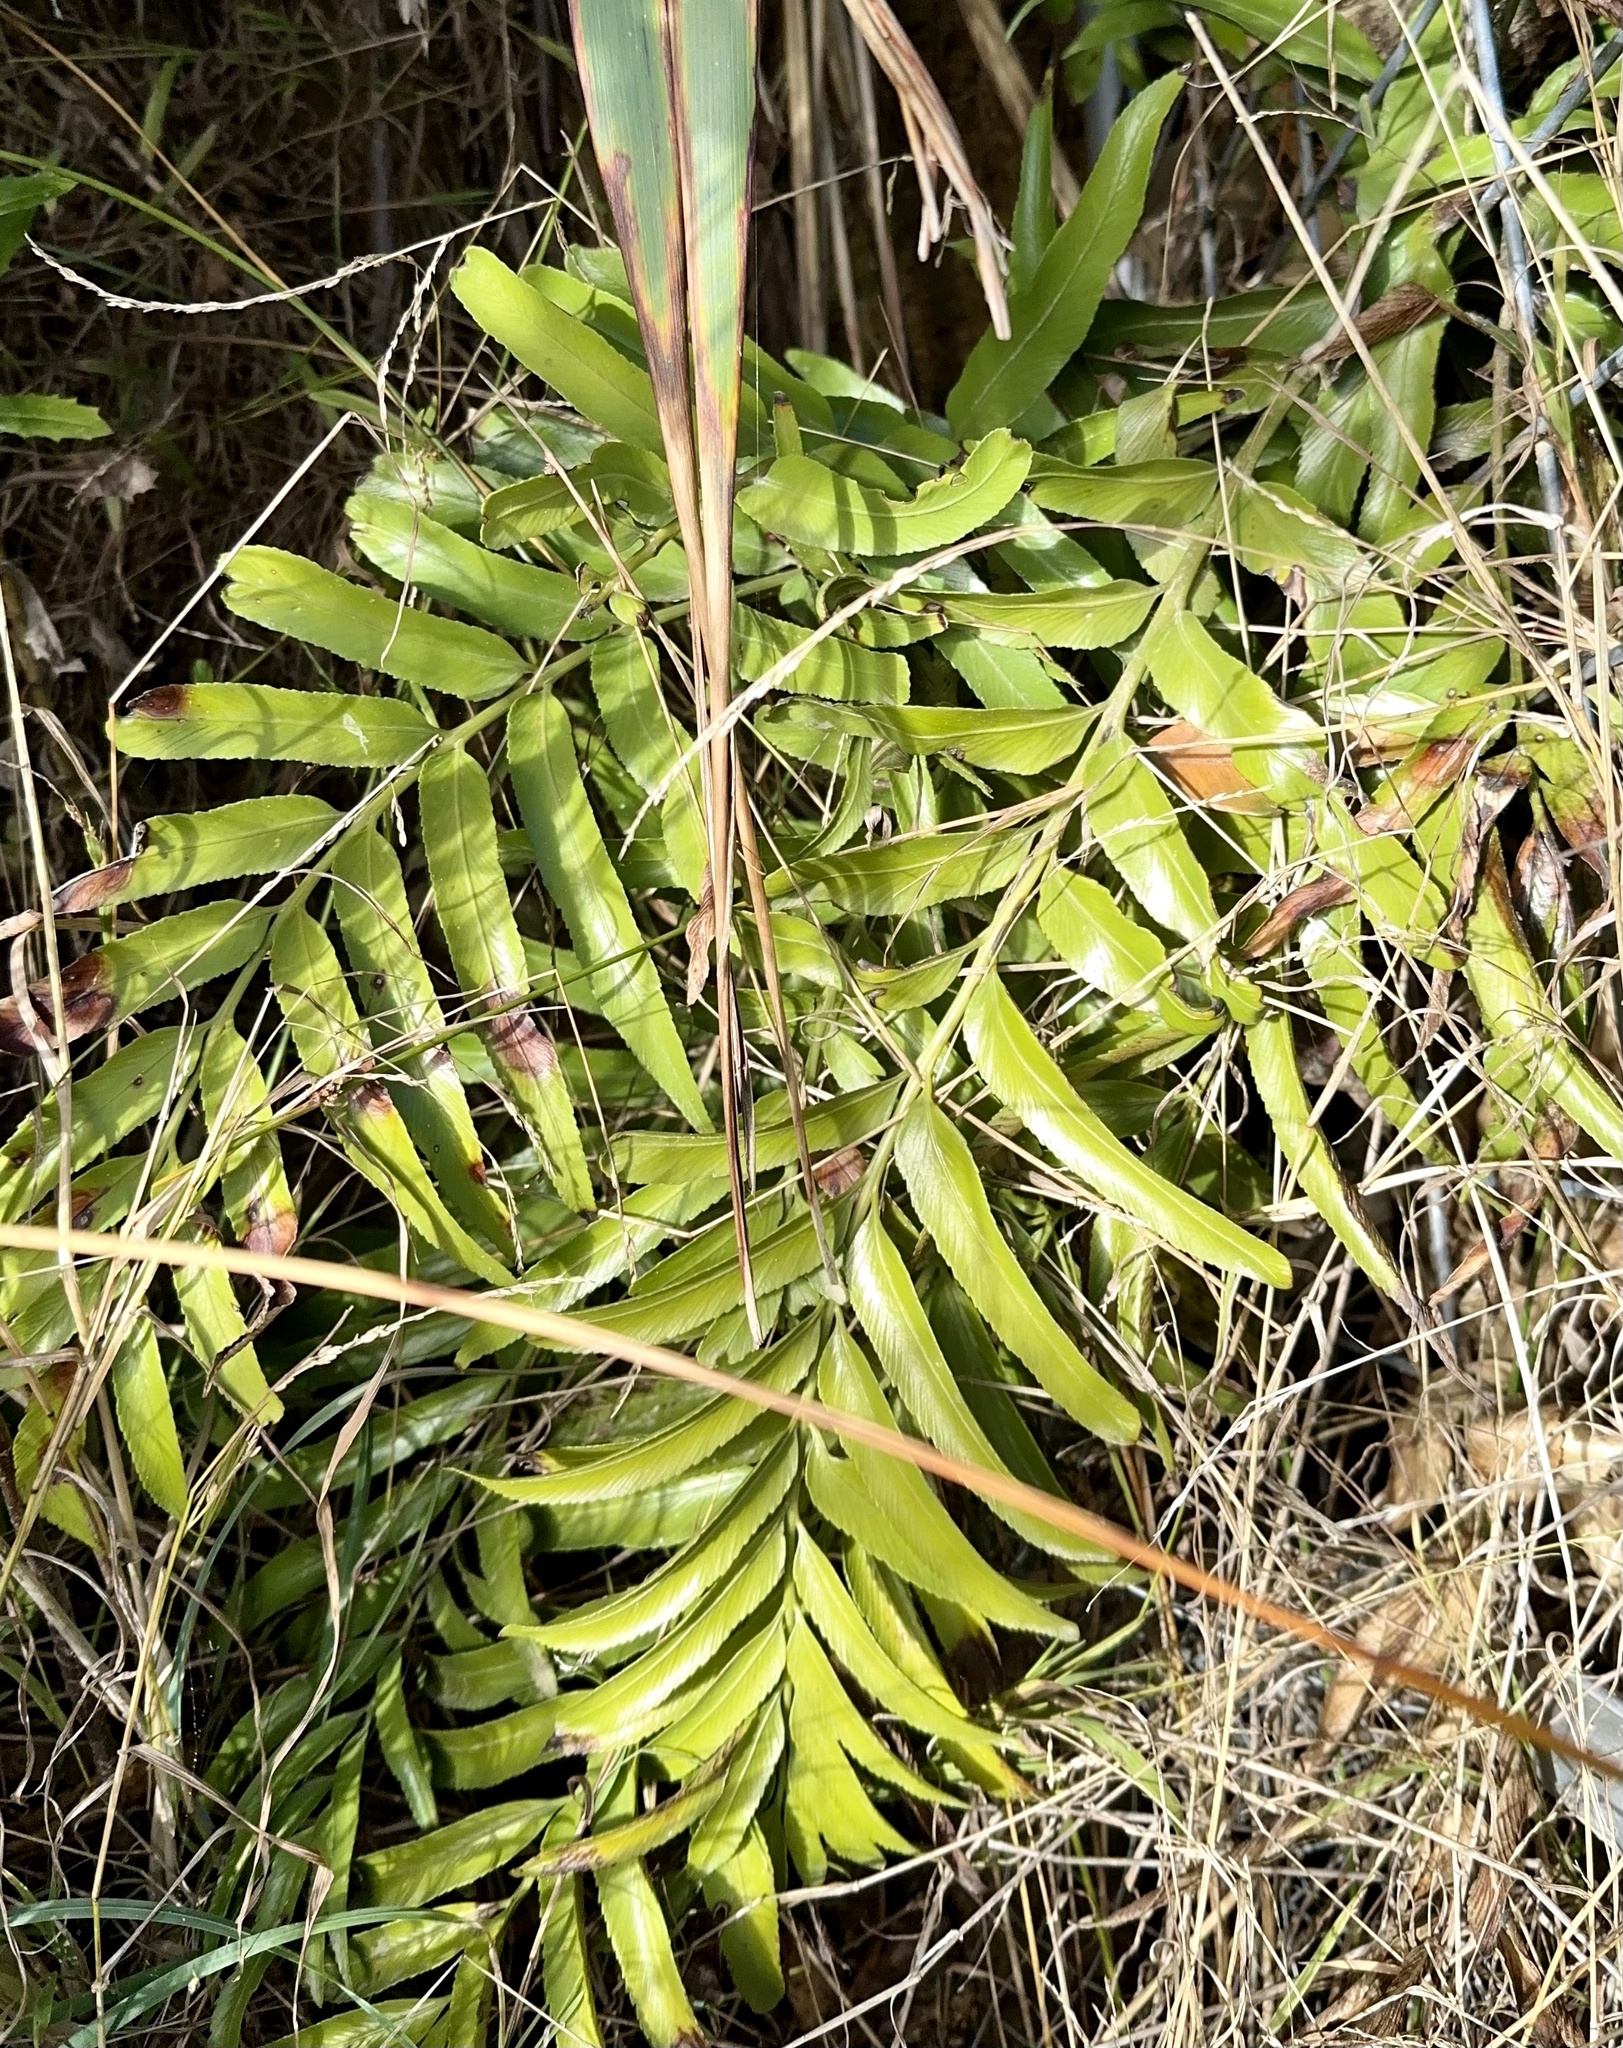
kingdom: Plantae
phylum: Tracheophyta
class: Polypodiopsida
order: Polypodiales
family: Aspleniaceae
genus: Asplenium
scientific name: Asplenium oblongifolium
